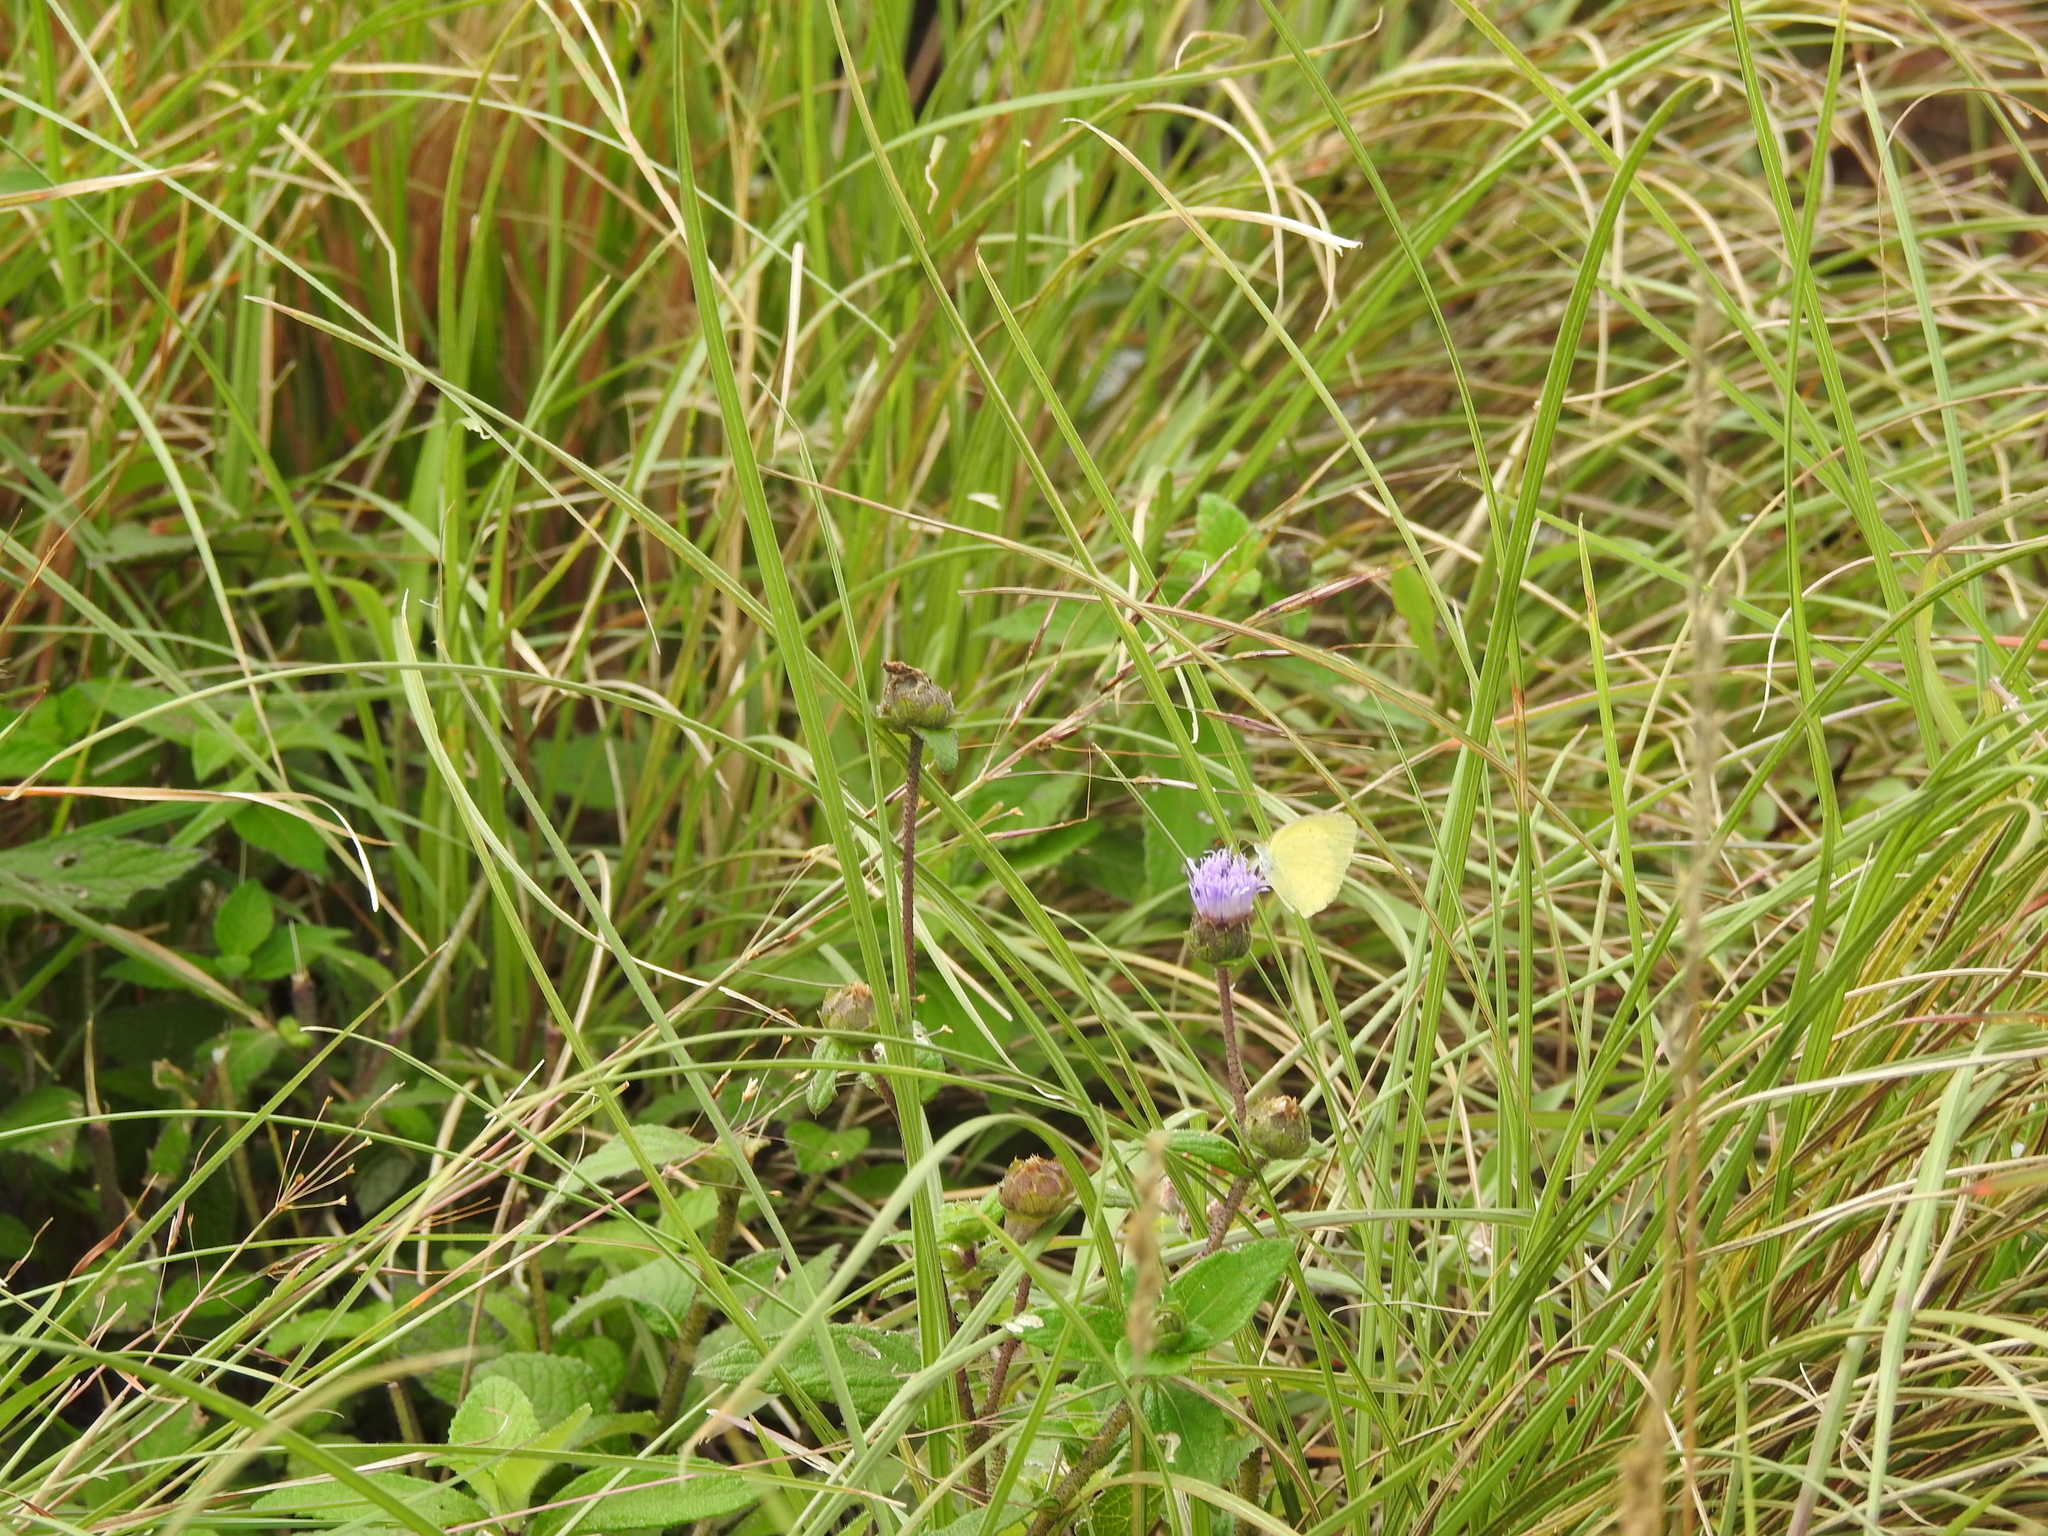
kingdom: Animalia
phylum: Arthropoda
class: Insecta
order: Lepidoptera
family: Pieridae
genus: Eurema
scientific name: Eurema brigitta
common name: Small grass yellow
